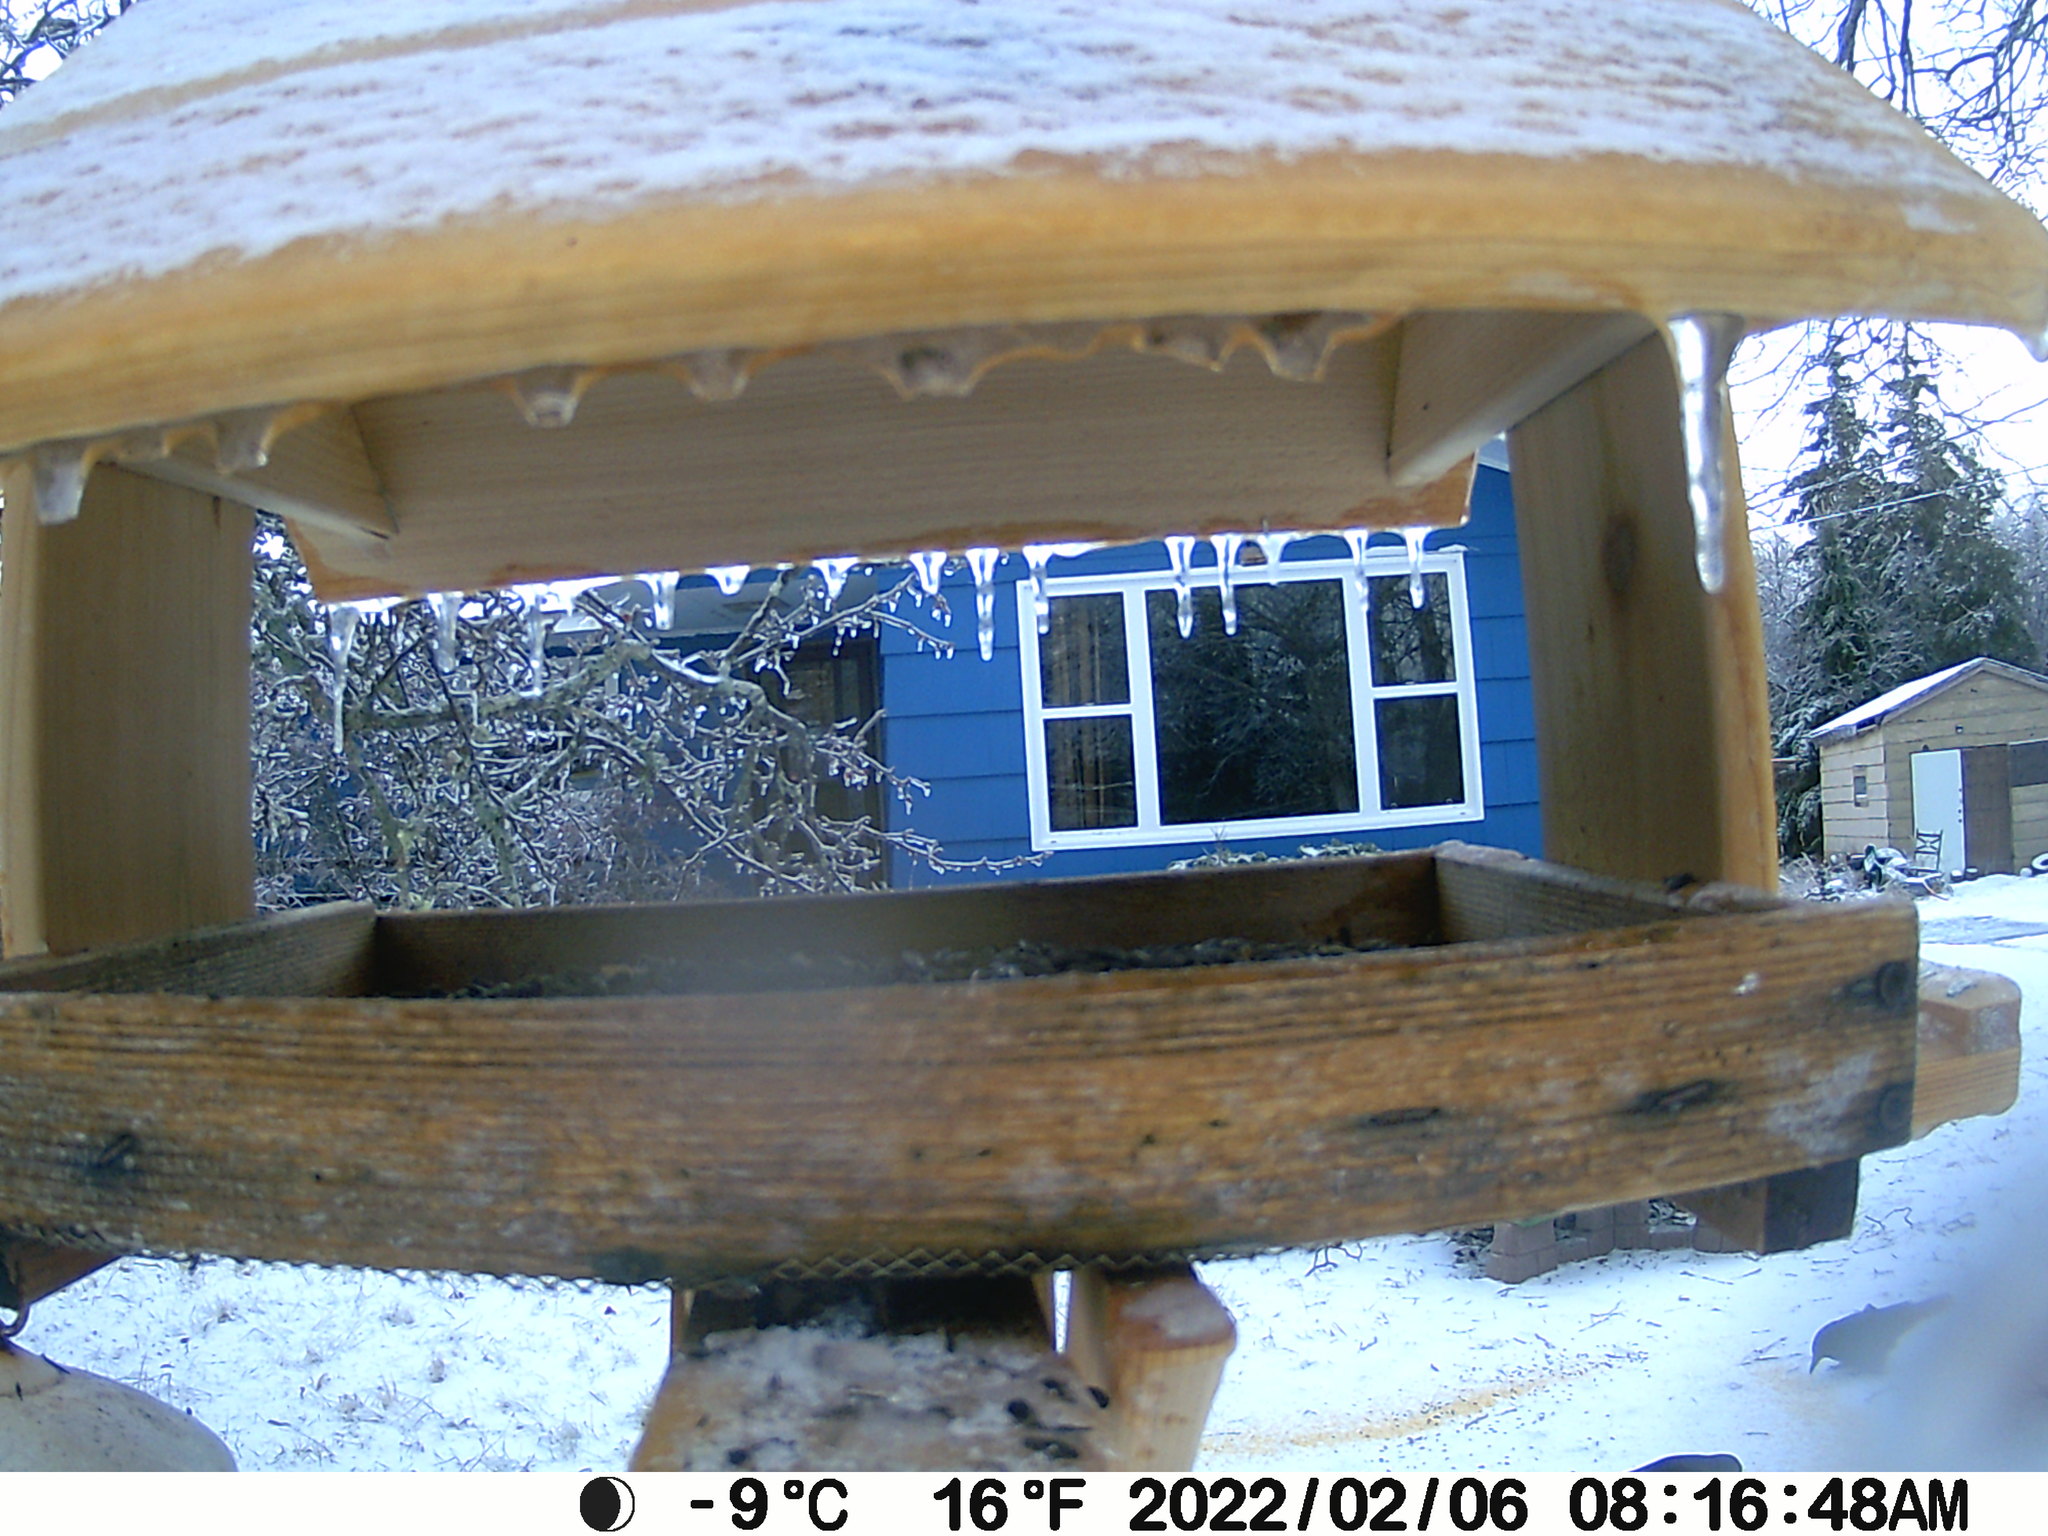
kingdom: Animalia
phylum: Chordata
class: Aves
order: Passeriformes
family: Corvidae
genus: Corvus
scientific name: Corvus brachyrhynchos
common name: American crow
